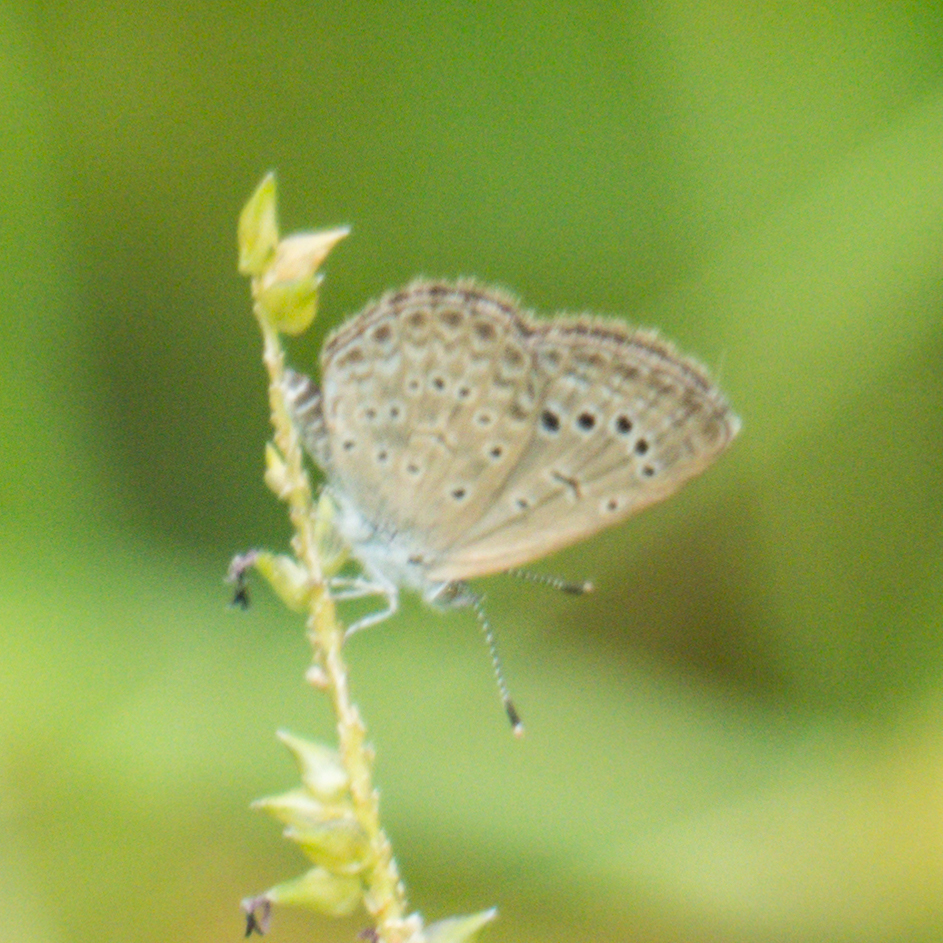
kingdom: Animalia
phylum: Arthropoda
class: Insecta
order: Lepidoptera
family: Lycaenidae
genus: Zizeeria
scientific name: Zizeeria karsandra
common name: Dark grass blue
